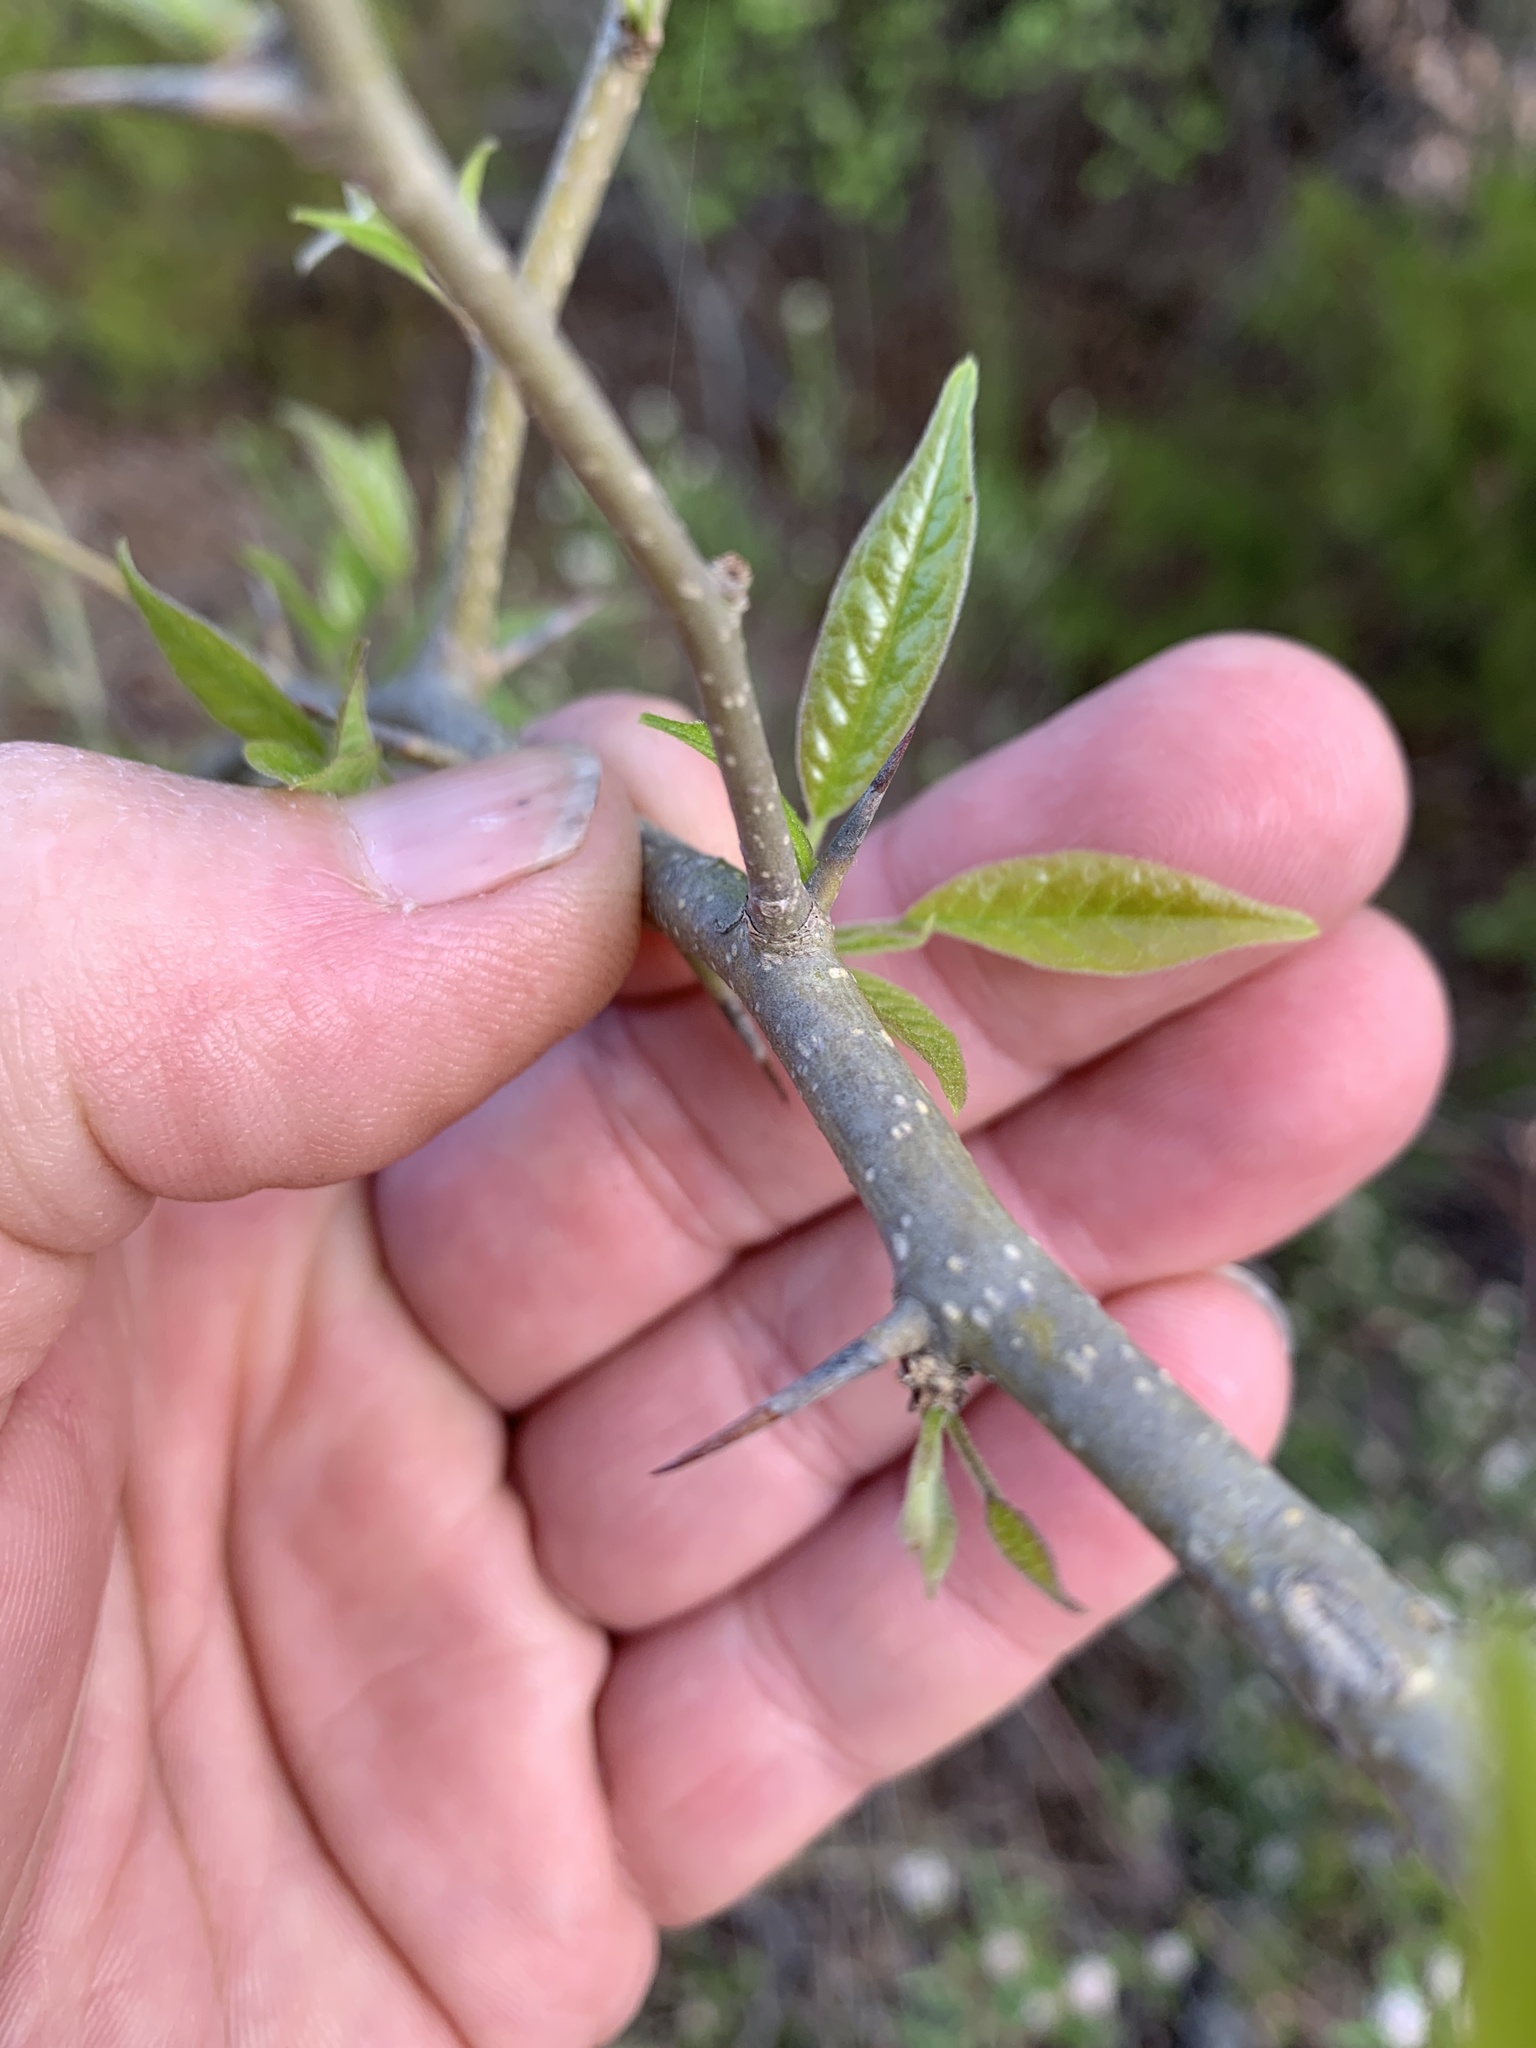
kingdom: Plantae
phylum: Tracheophyta
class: Magnoliopsida
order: Rosales
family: Moraceae
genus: Maclura
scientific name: Maclura pomifera
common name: Osage-orange
